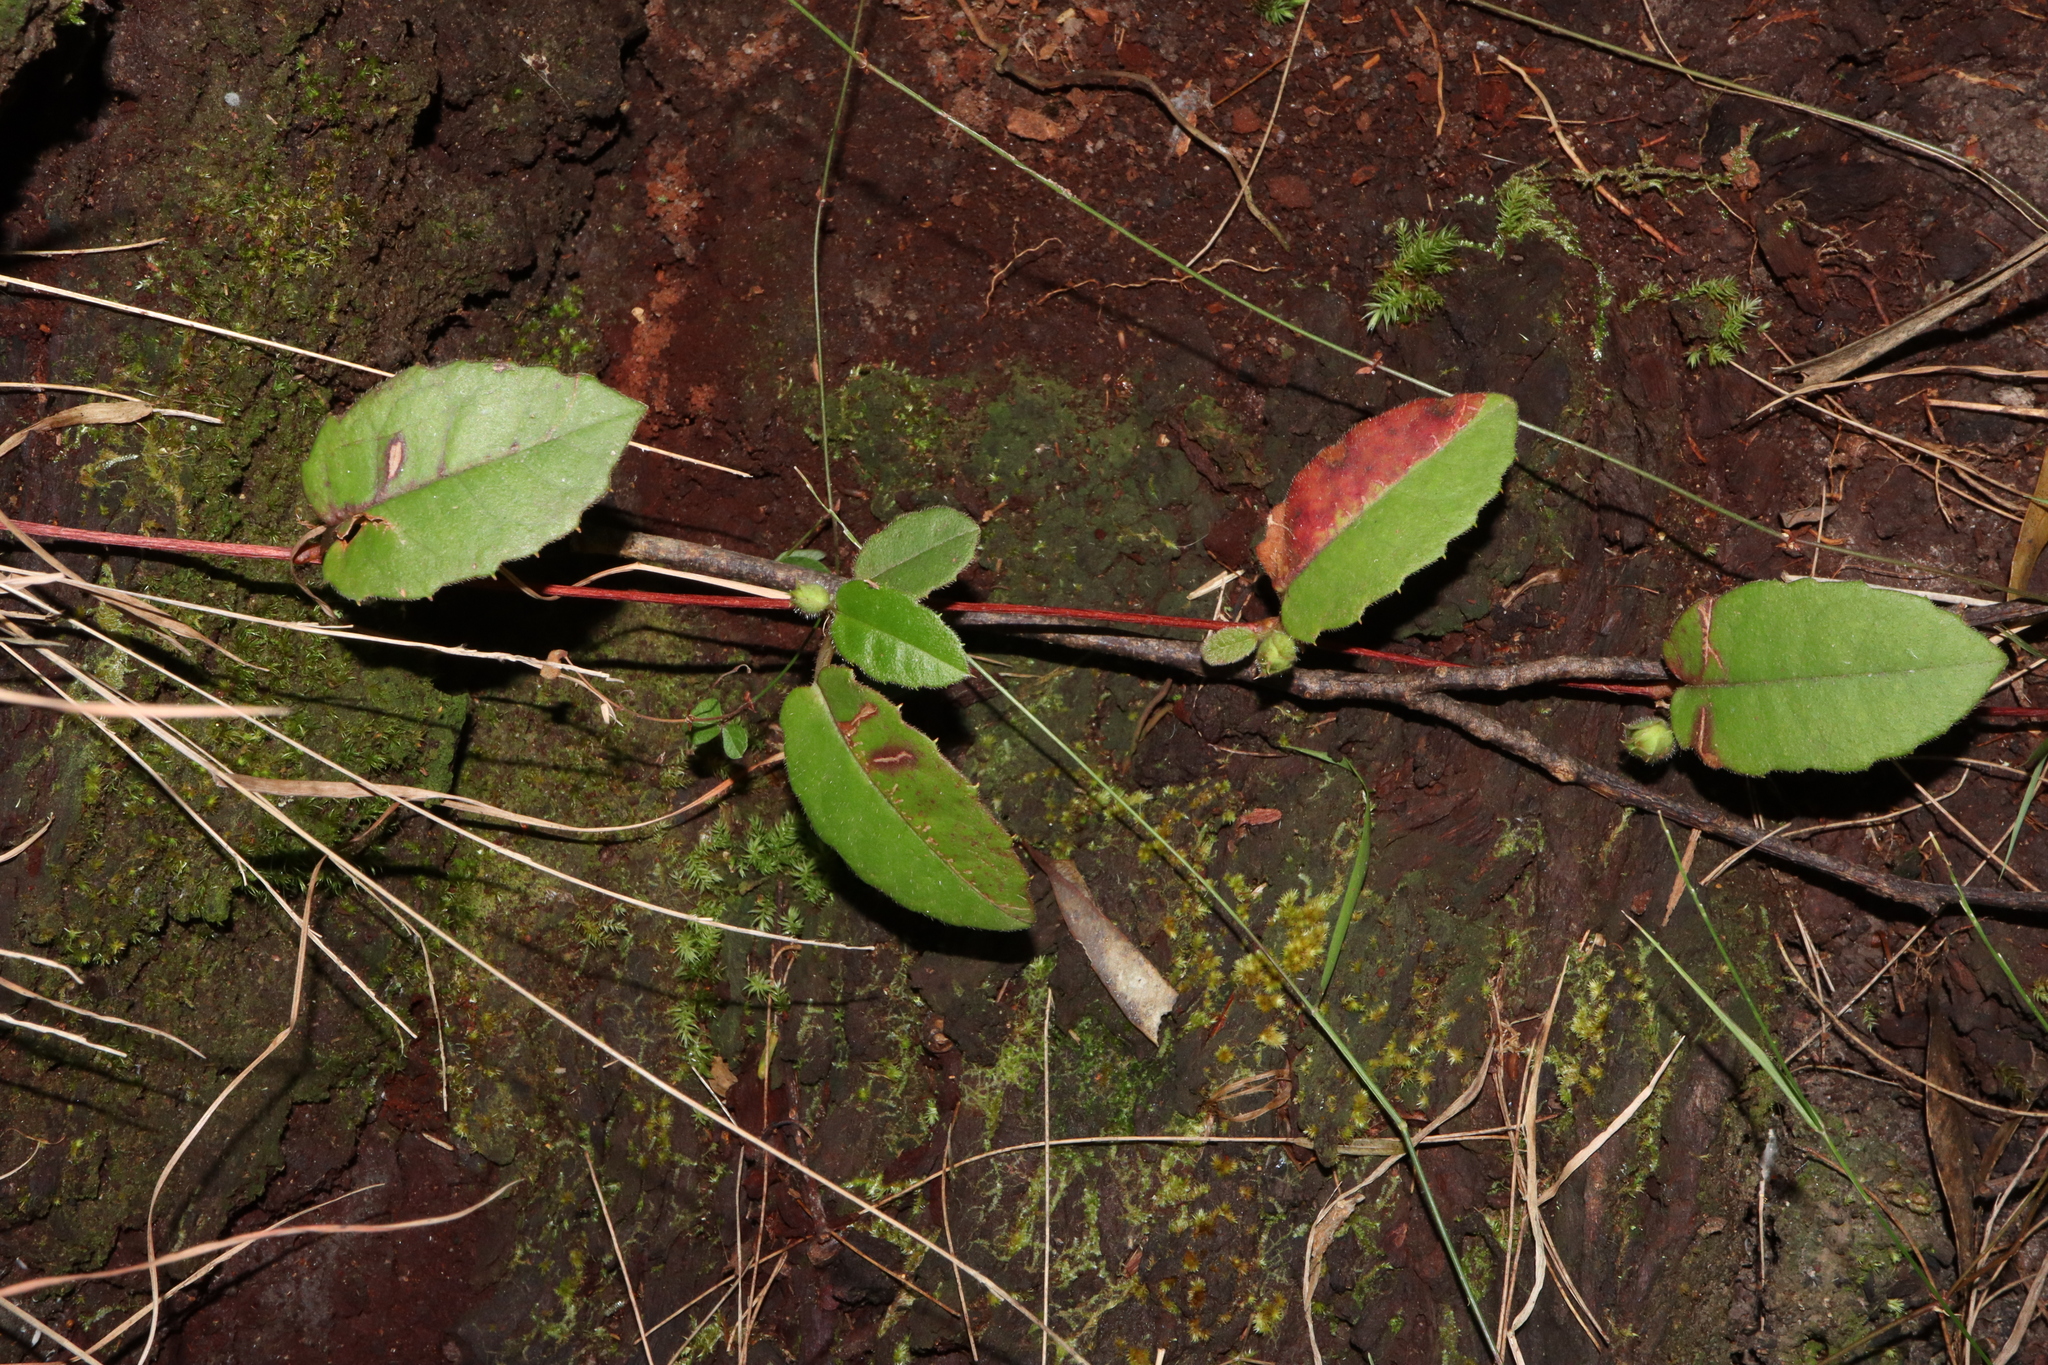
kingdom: Plantae
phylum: Tracheophyta
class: Magnoliopsida
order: Dilleniales
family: Dilleniaceae
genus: Hibbertia
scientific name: Hibbertia dentata
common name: Trailing guinea-flower
